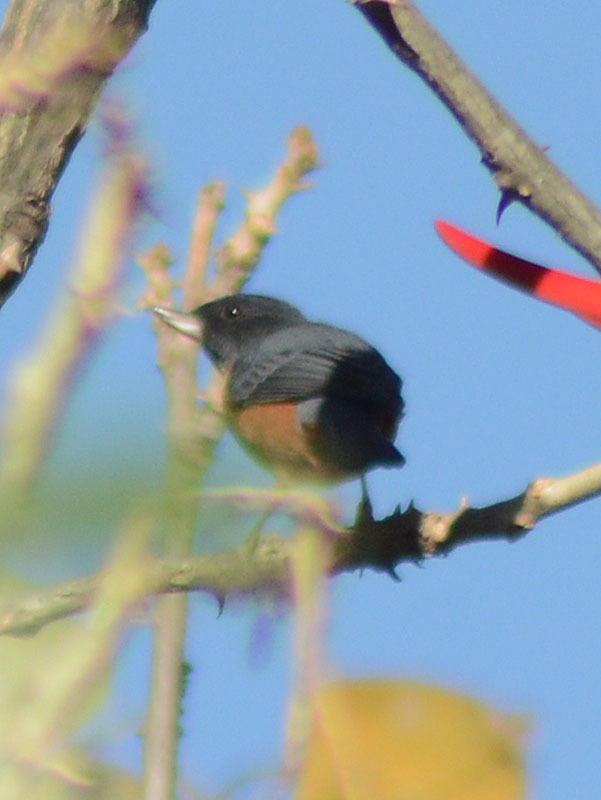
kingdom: Animalia
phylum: Chordata
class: Aves
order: Passeriformes
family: Thraupidae
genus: Diglossa
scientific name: Diglossa baritula
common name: Cinnamon-bellied flowerpiercer
